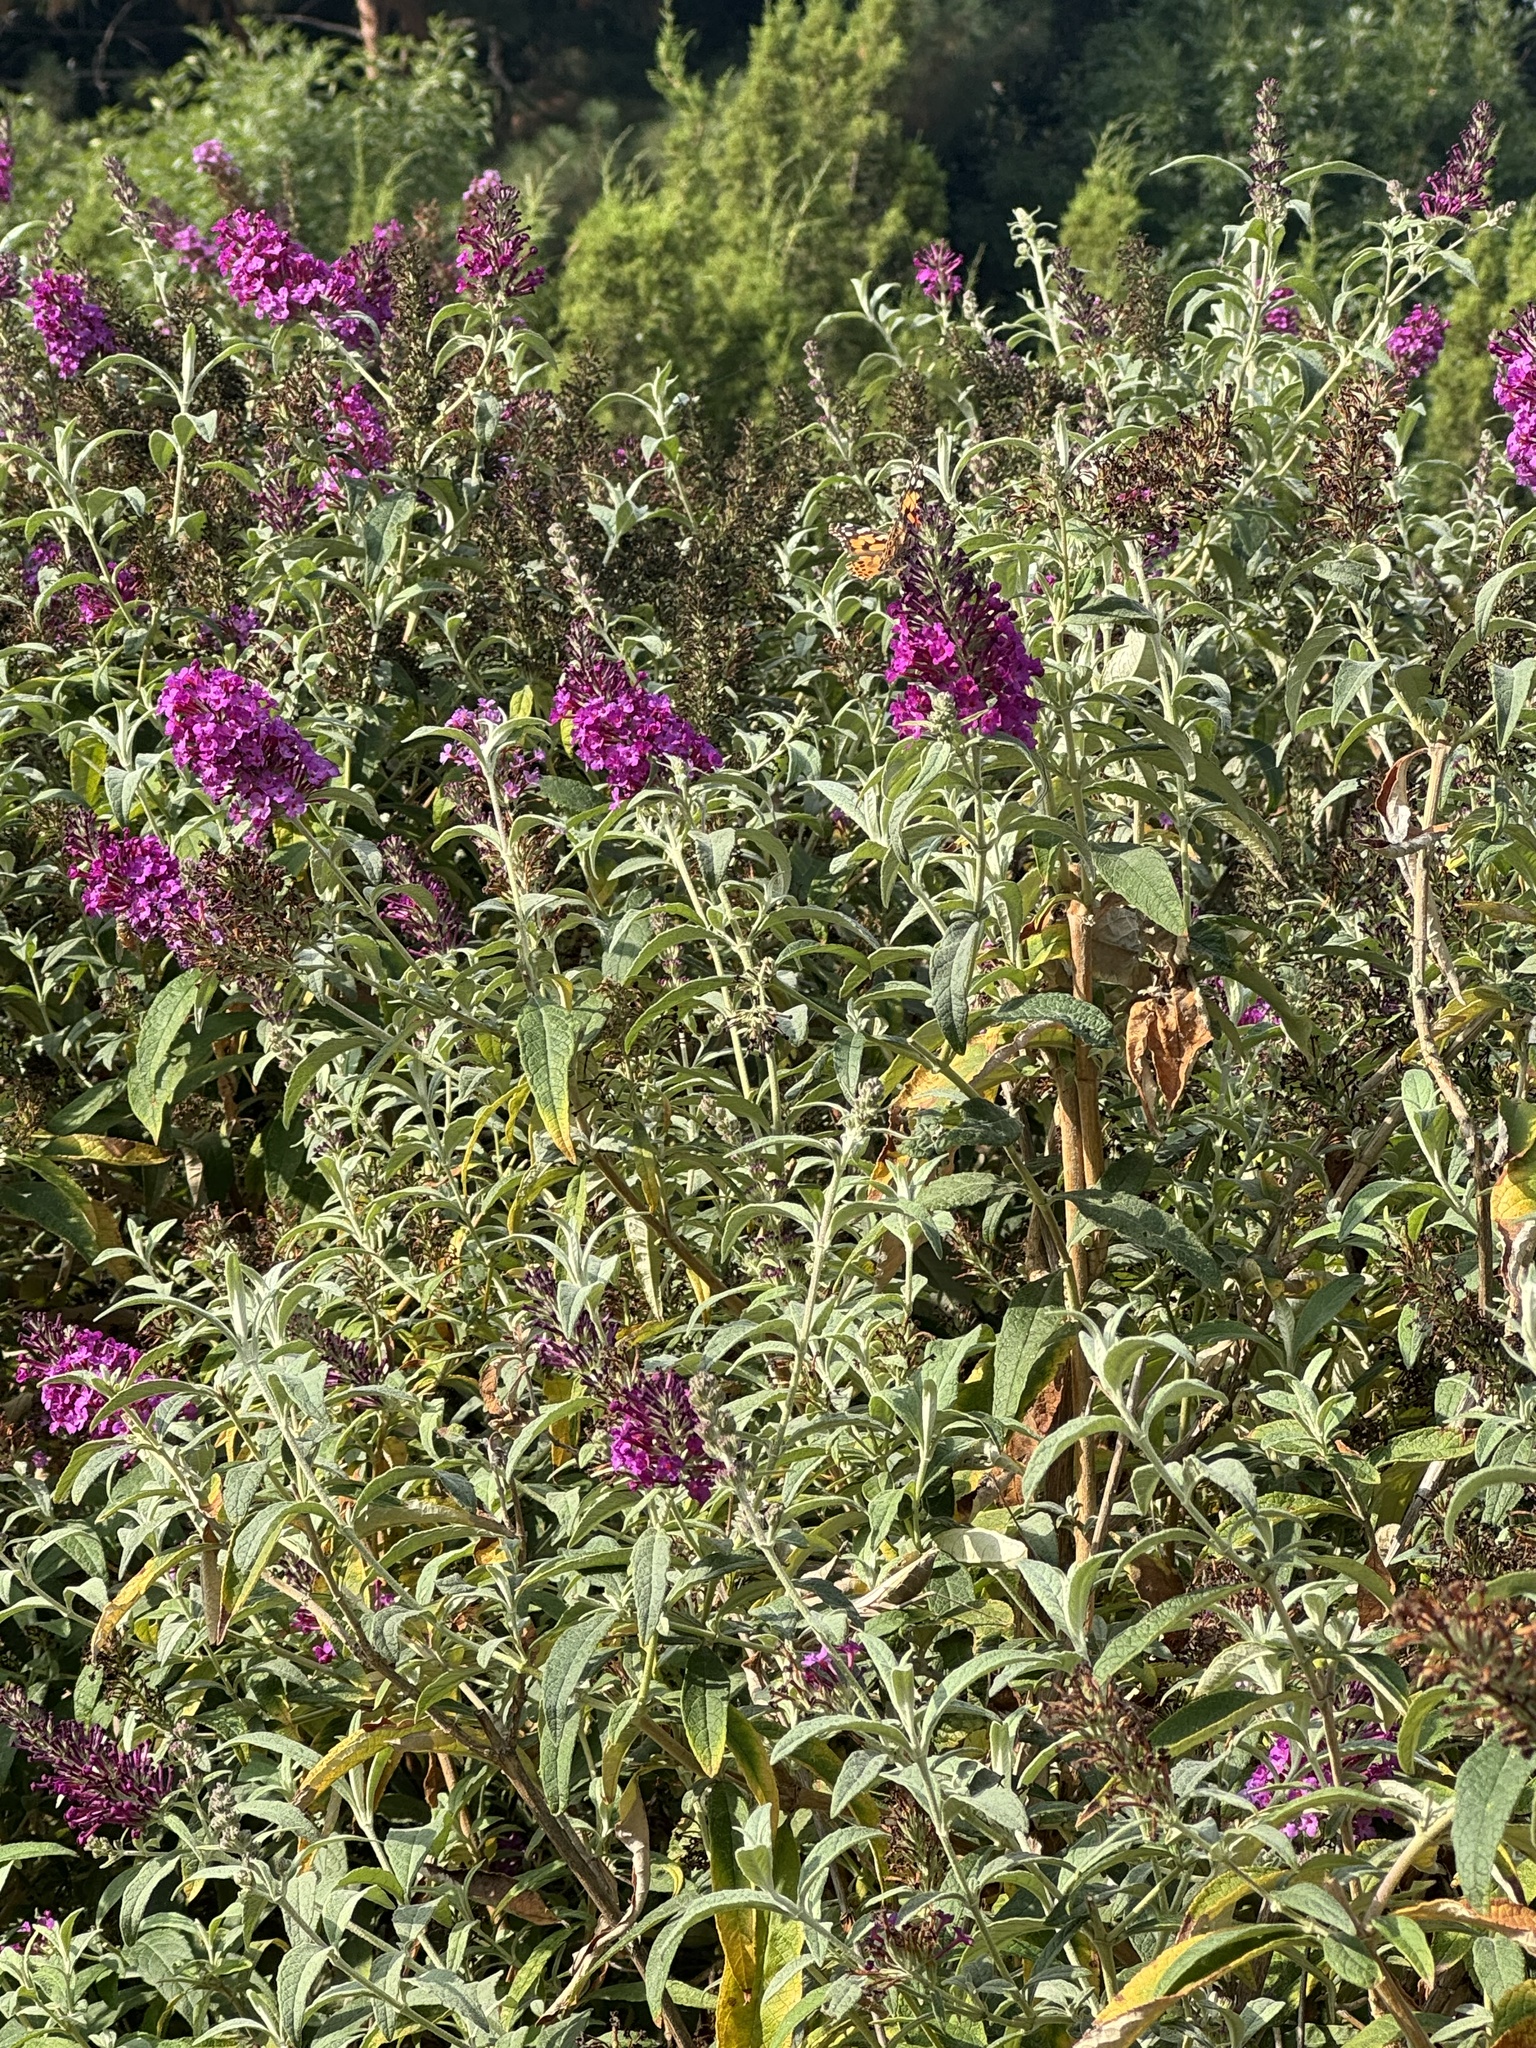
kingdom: Animalia
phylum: Arthropoda
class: Insecta
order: Lepidoptera
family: Nymphalidae
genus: Vanessa
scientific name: Vanessa cardui
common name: Painted lady
